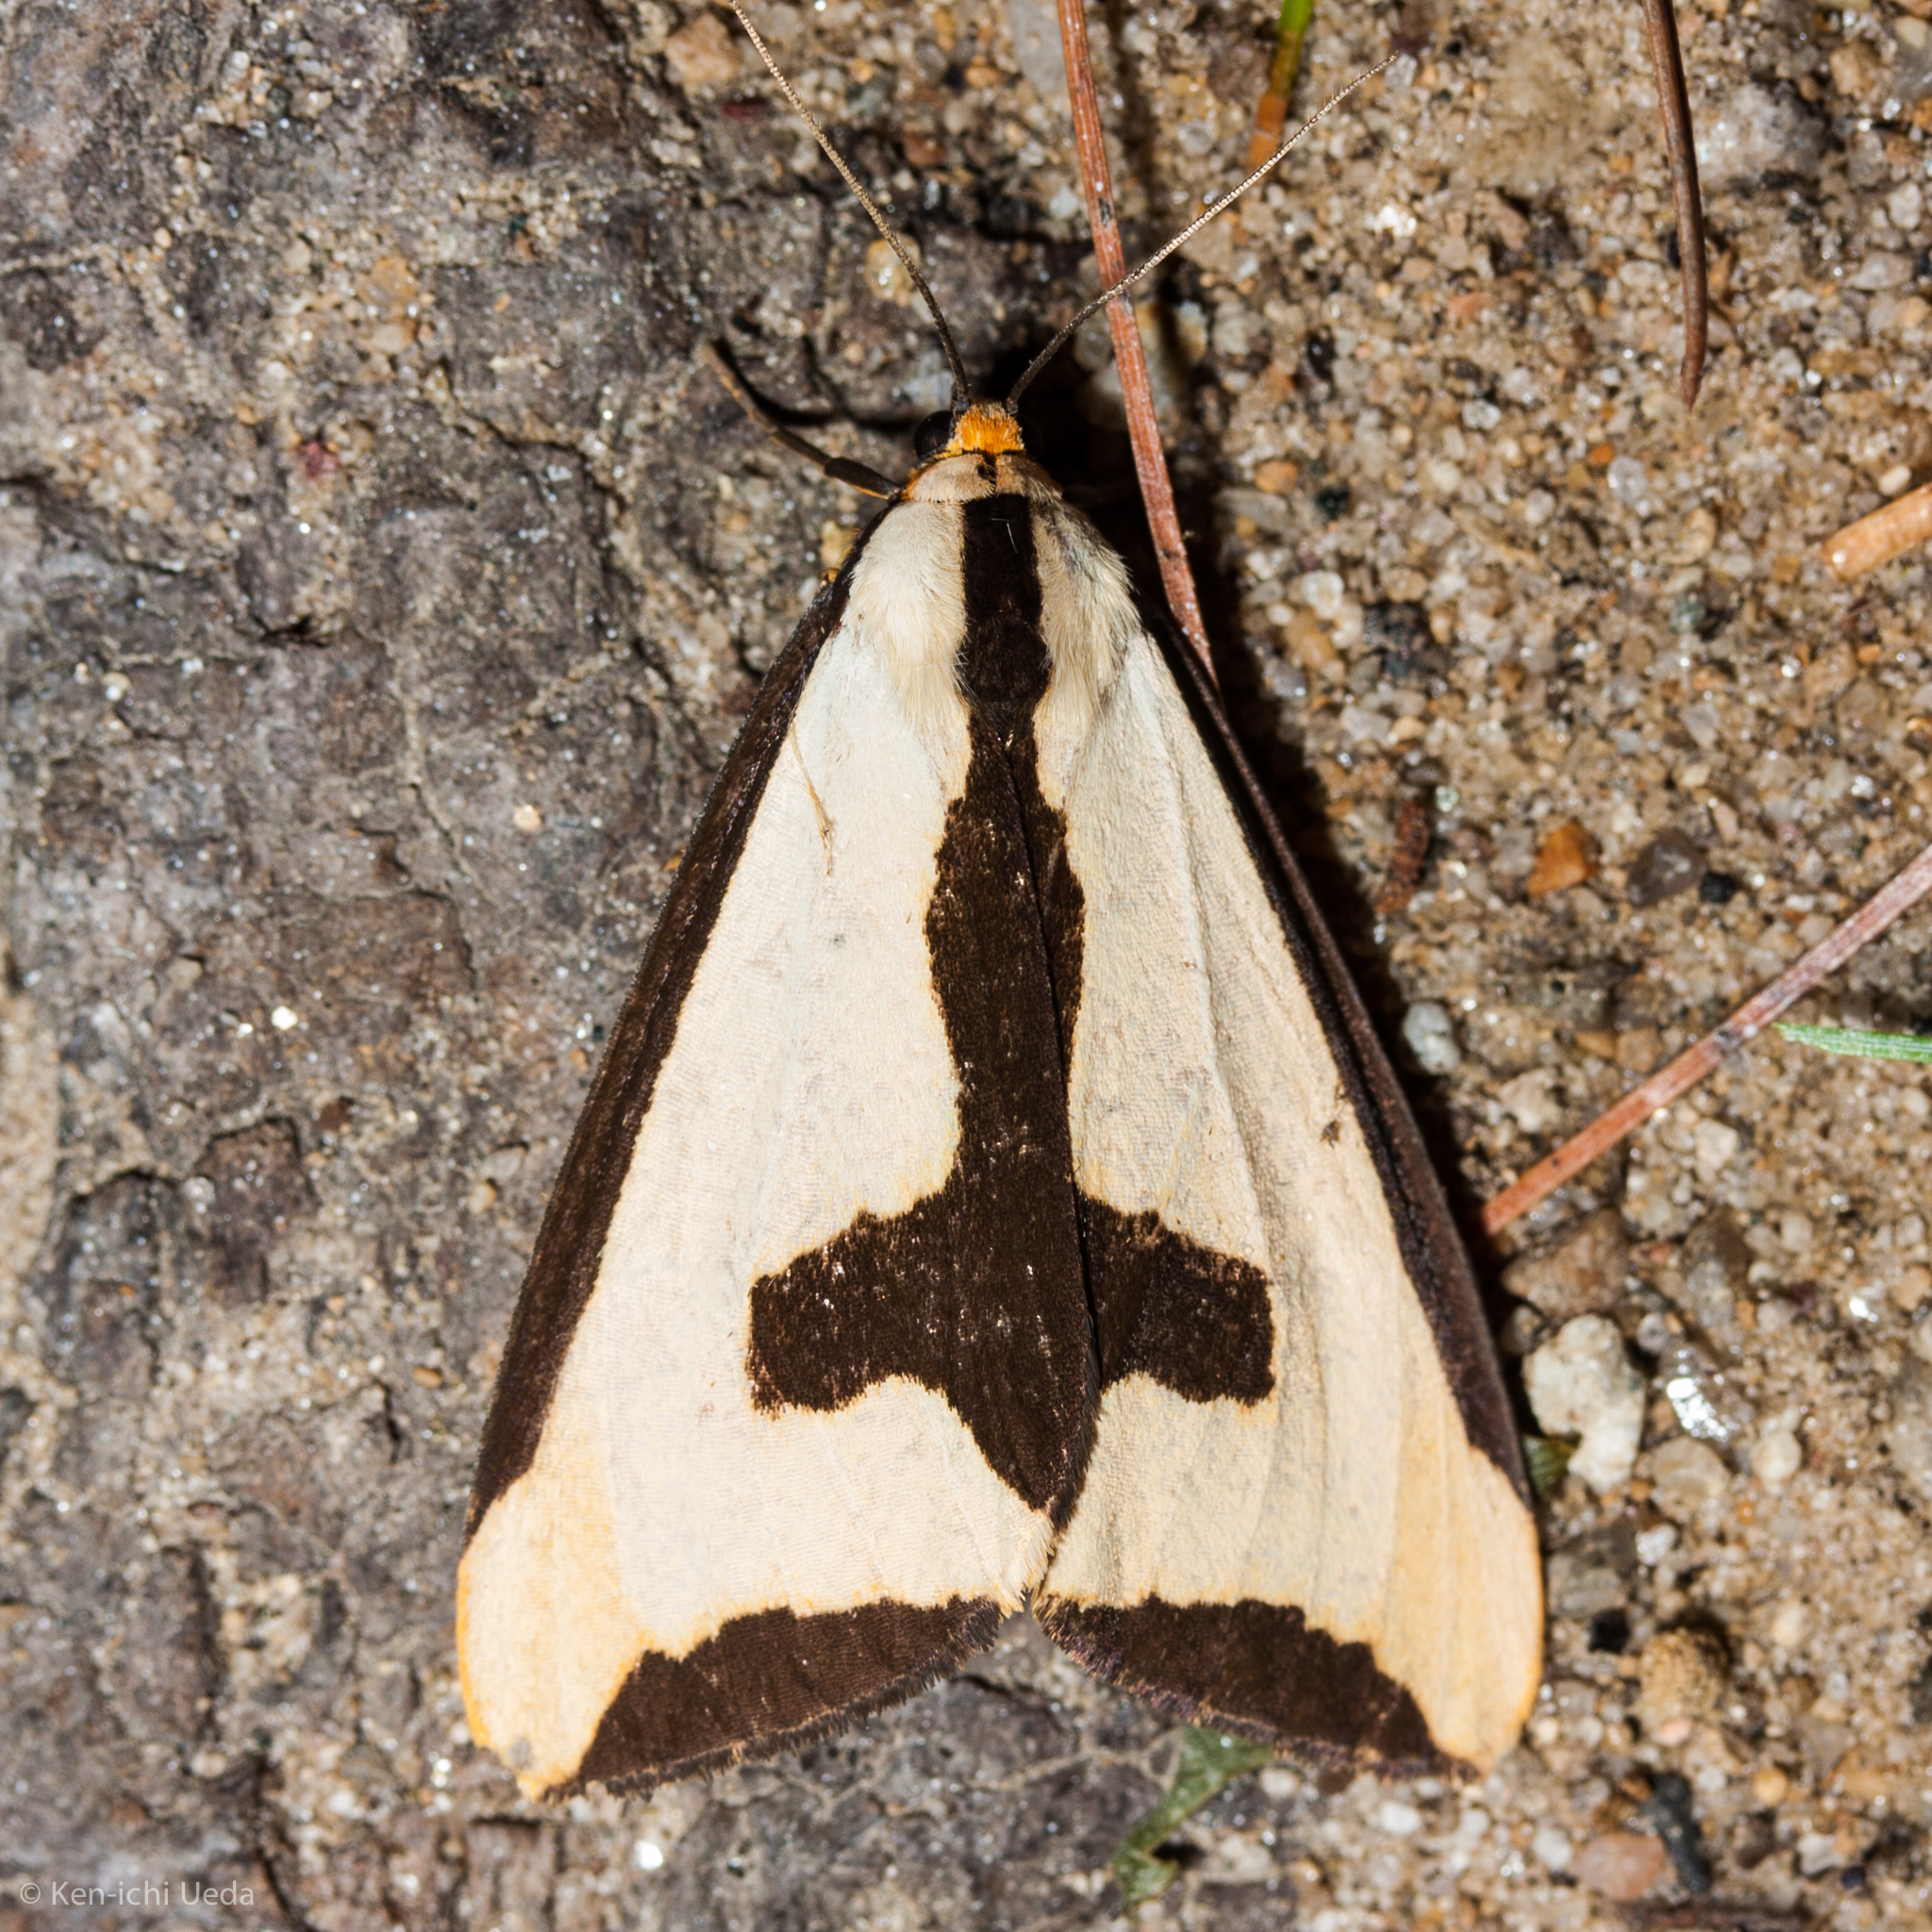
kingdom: Animalia
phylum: Arthropoda
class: Insecta
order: Lepidoptera
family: Erebidae
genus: Haploa
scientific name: Haploa clymene
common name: Clymene moth
